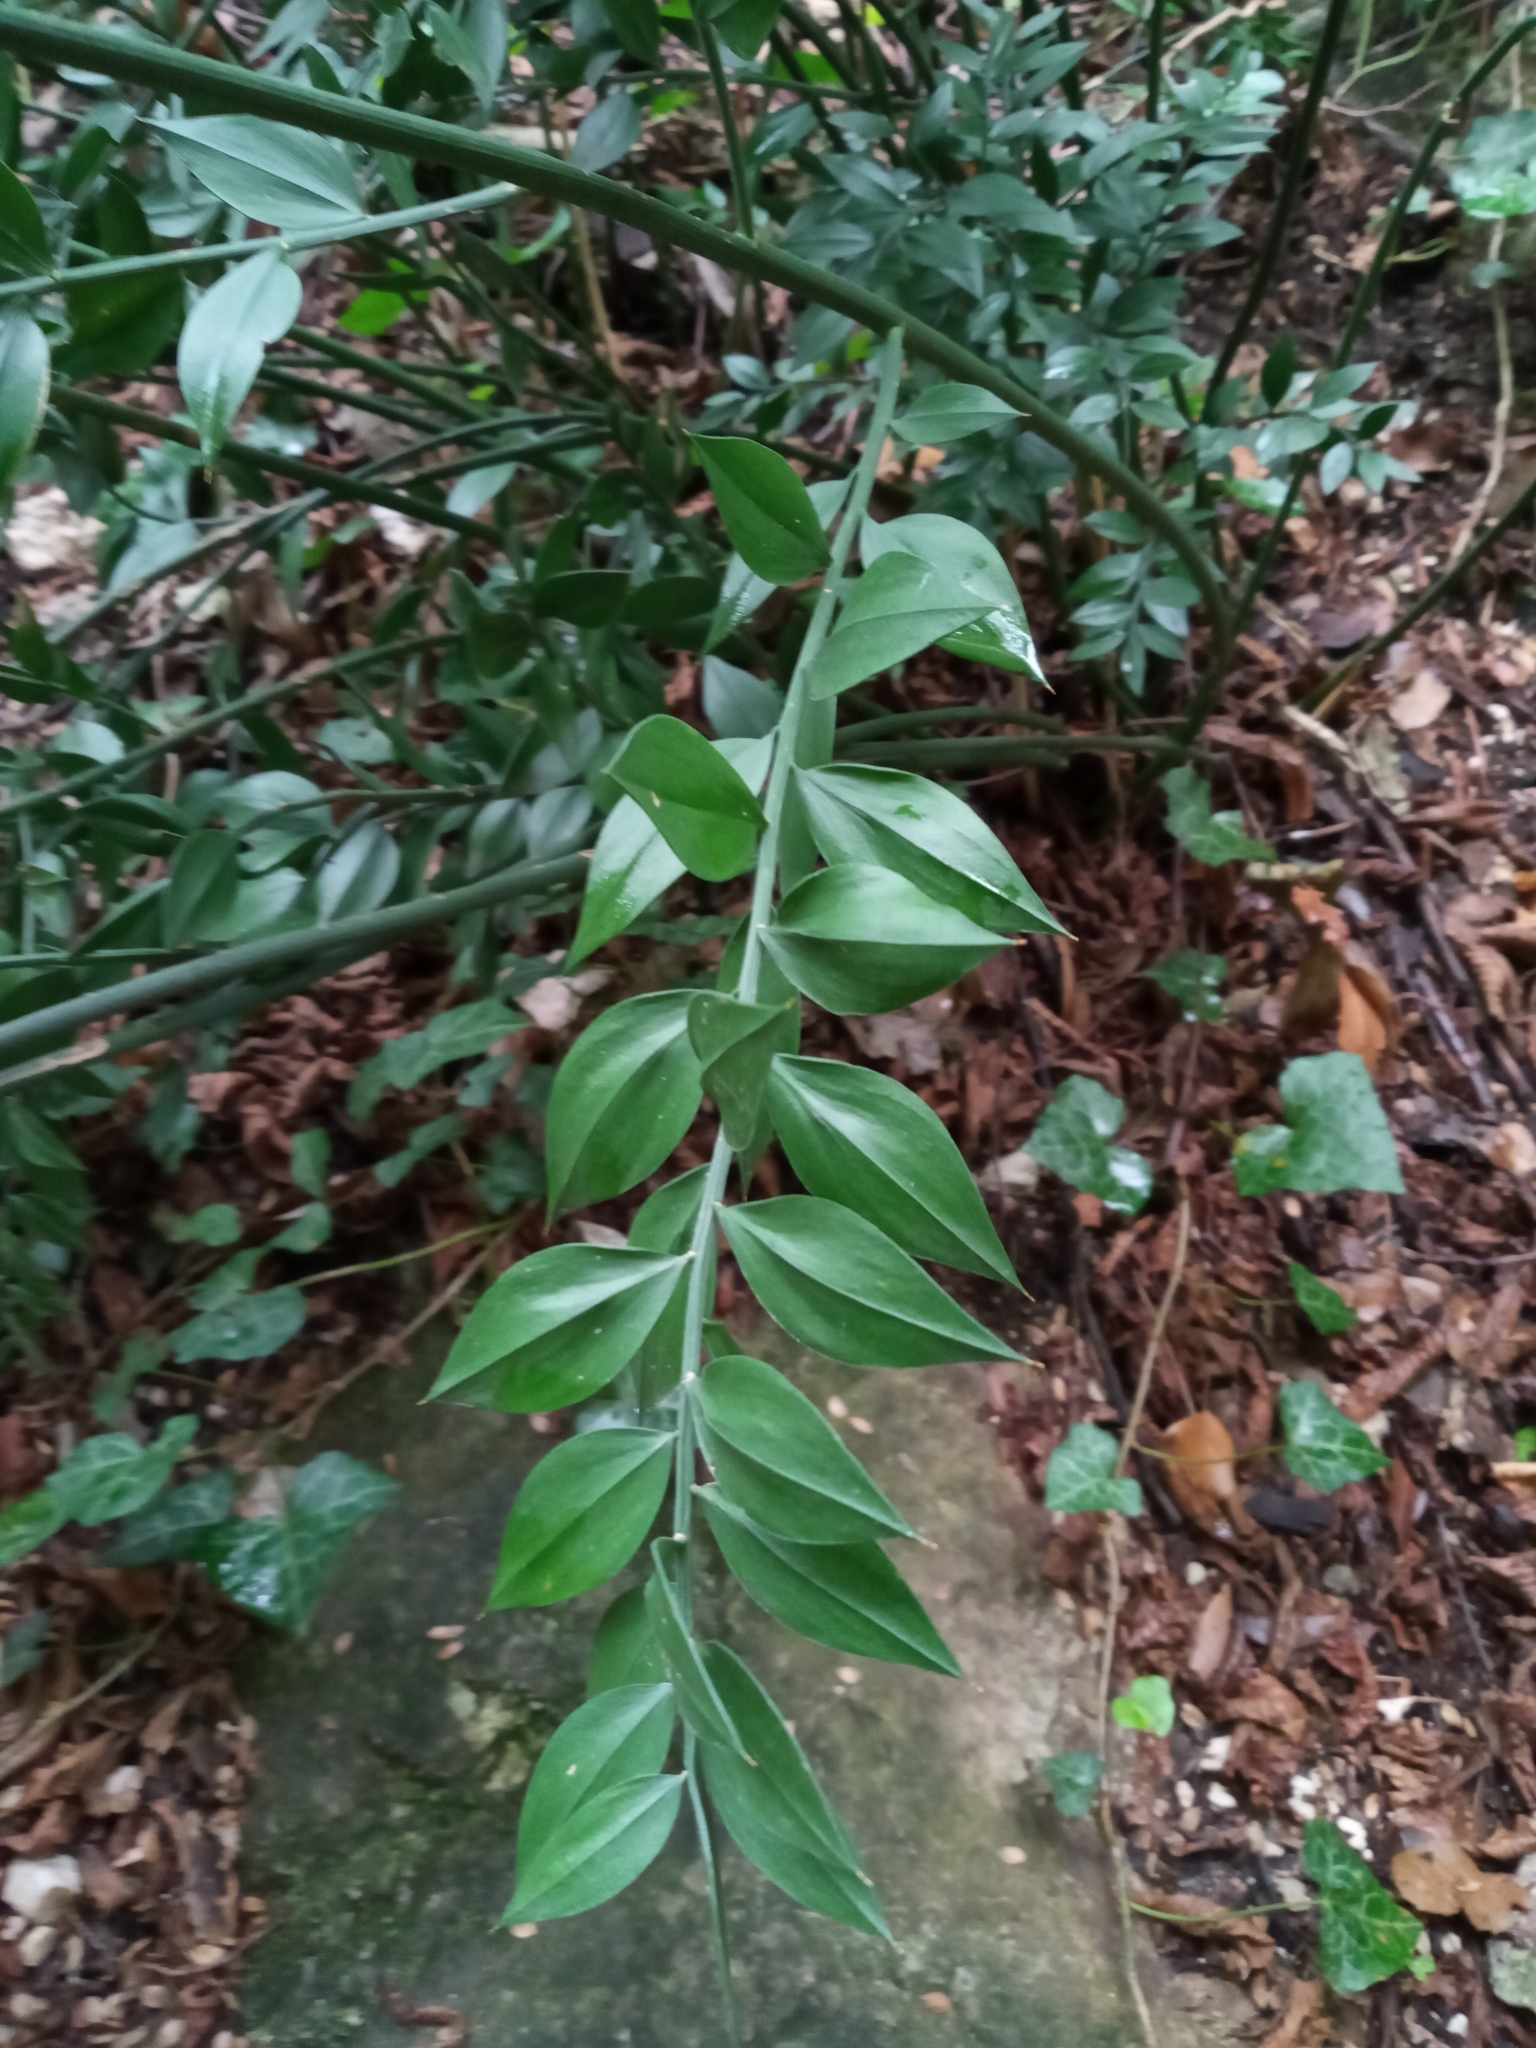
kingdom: Plantae
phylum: Tracheophyta
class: Liliopsida
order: Asparagales
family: Asparagaceae
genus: Ruscus
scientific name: Ruscus aculeatus
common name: Butcher's-broom
